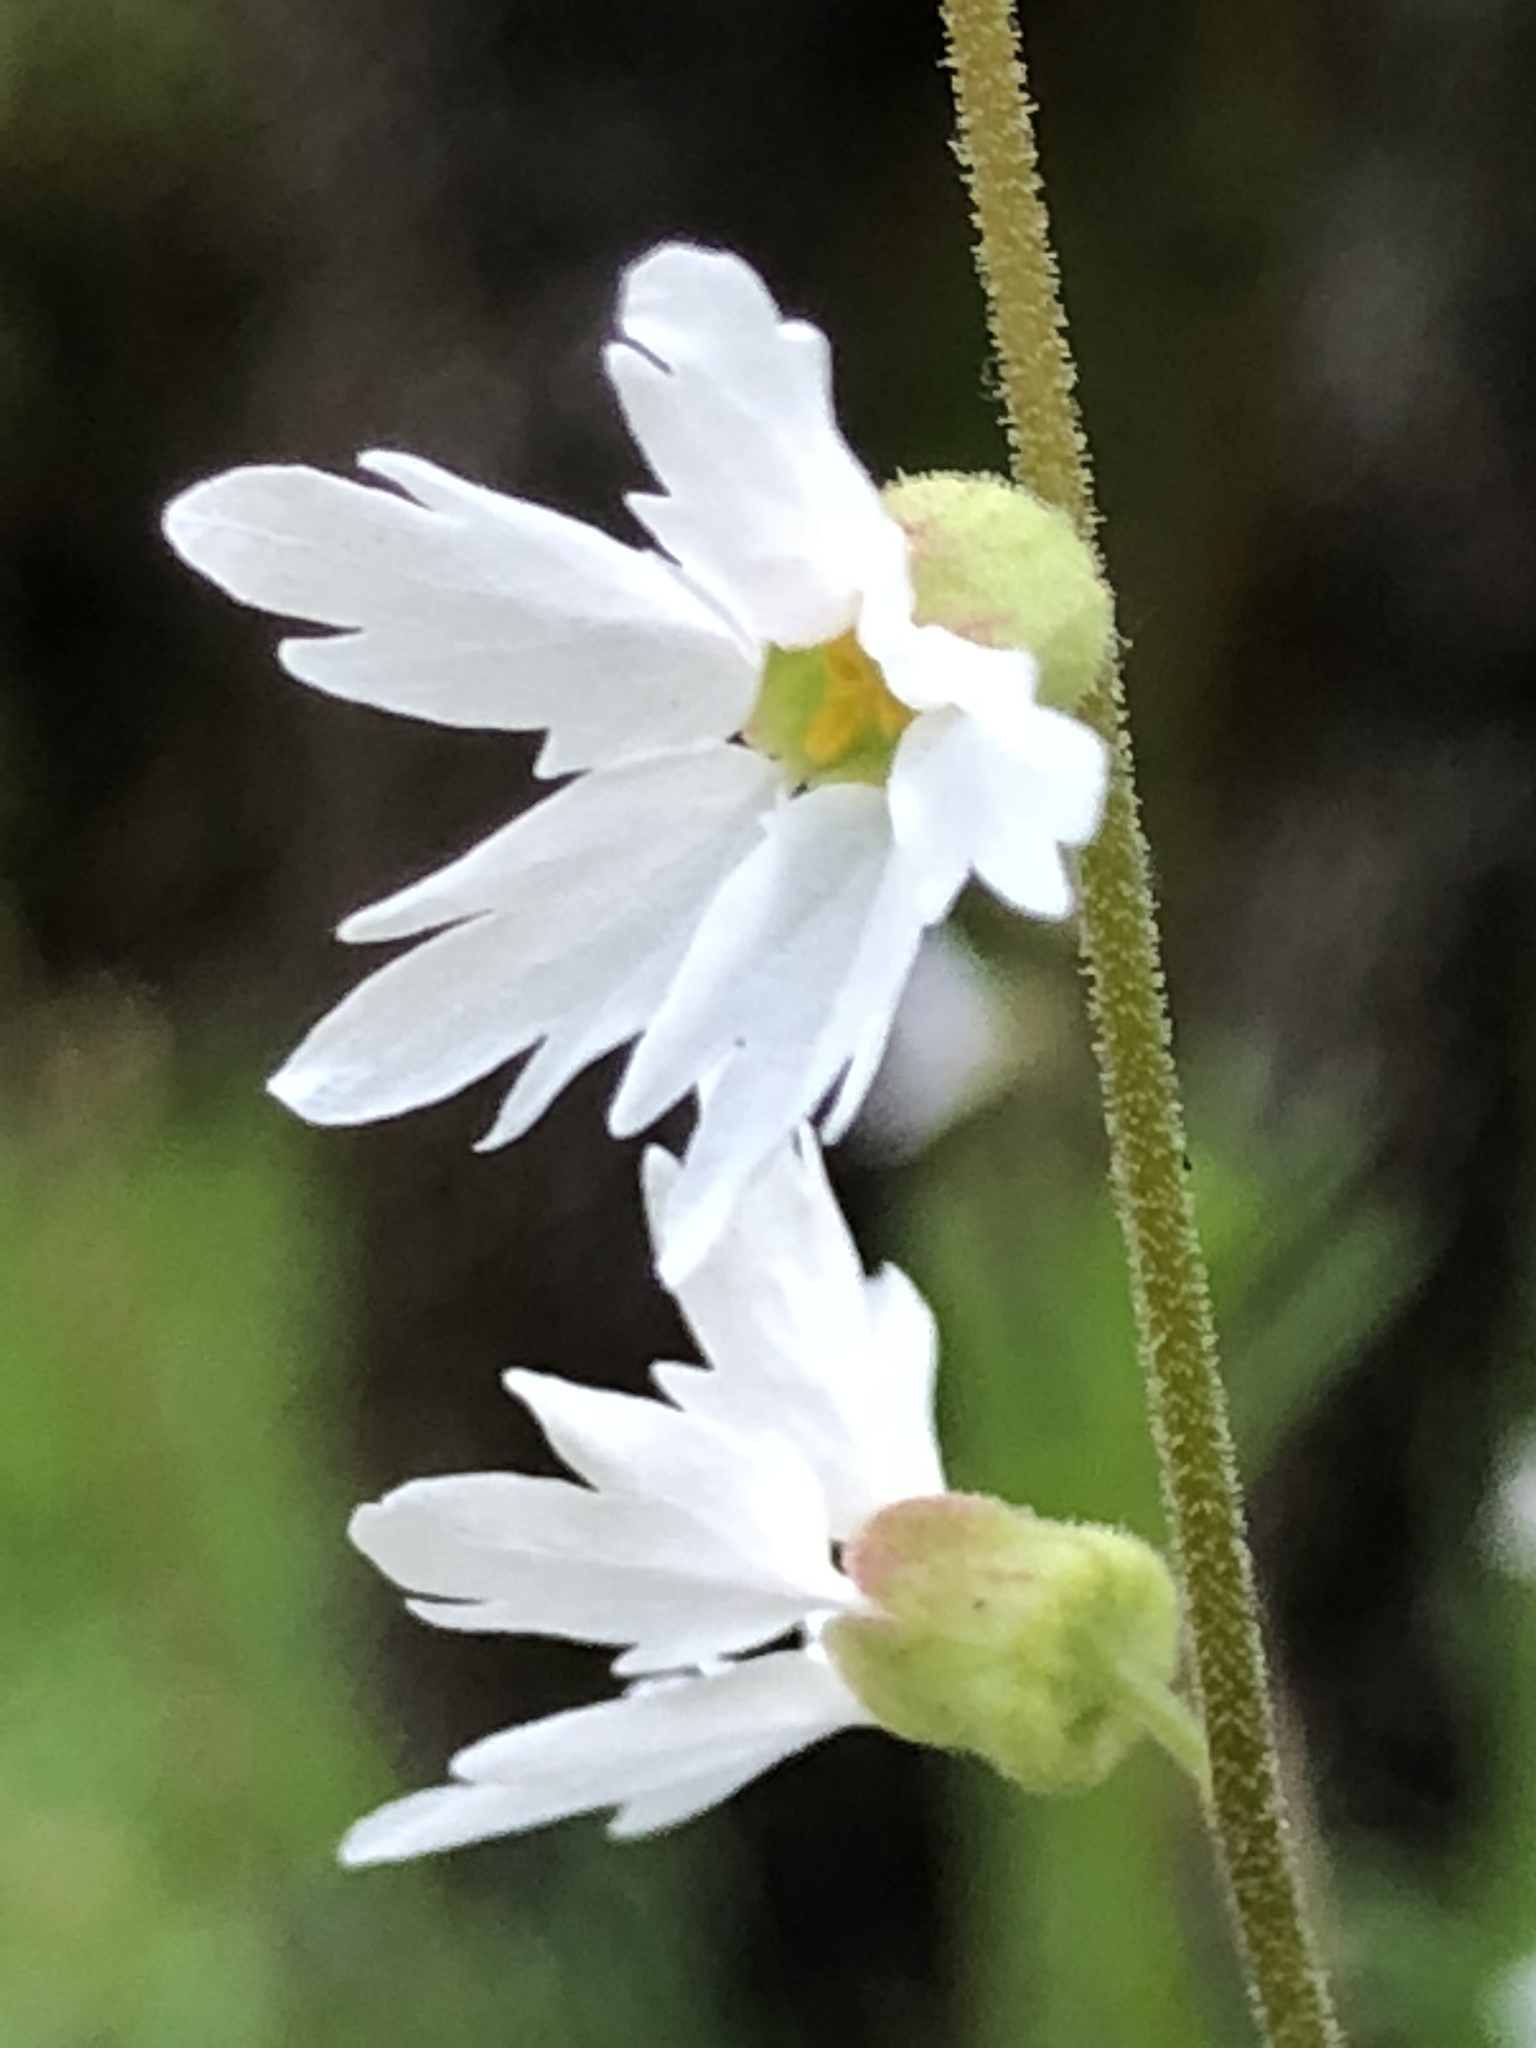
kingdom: Plantae
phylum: Tracheophyta
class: Magnoliopsida
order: Saxifragales
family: Saxifragaceae
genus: Lithophragma
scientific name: Lithophragma heterophyllum
